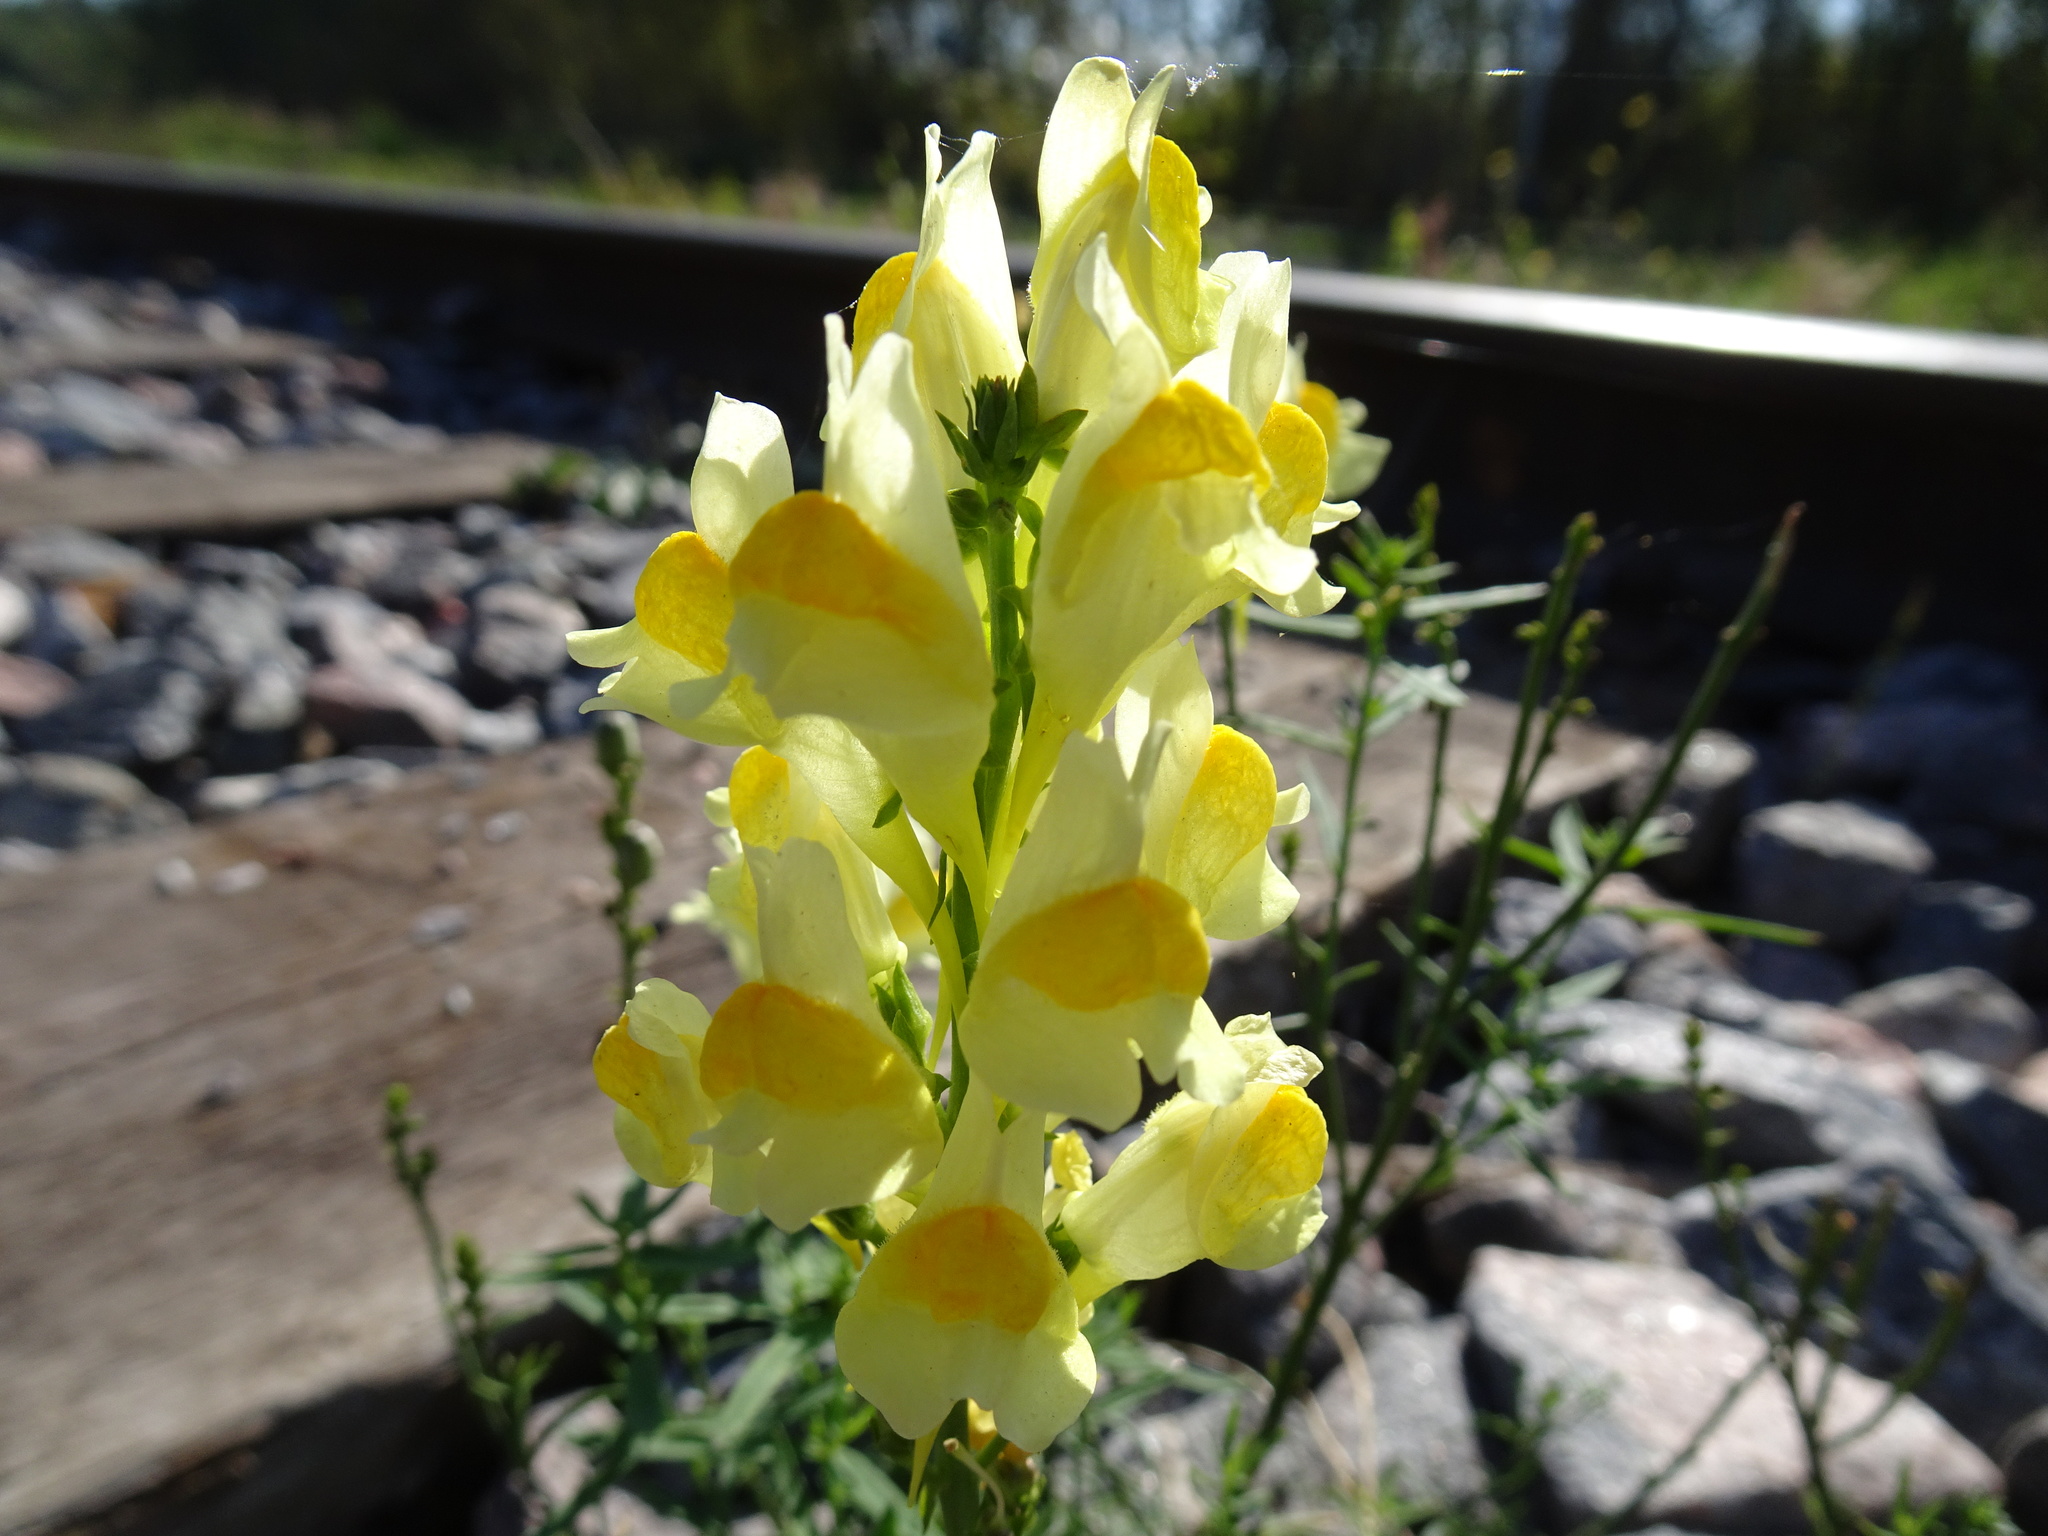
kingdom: Plantae
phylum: Tracheophyta
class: Magnoliopsida
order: Lamiales
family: Plantaginaceae
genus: Linaria
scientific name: Linaria vulgaris
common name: Butter and eggs
